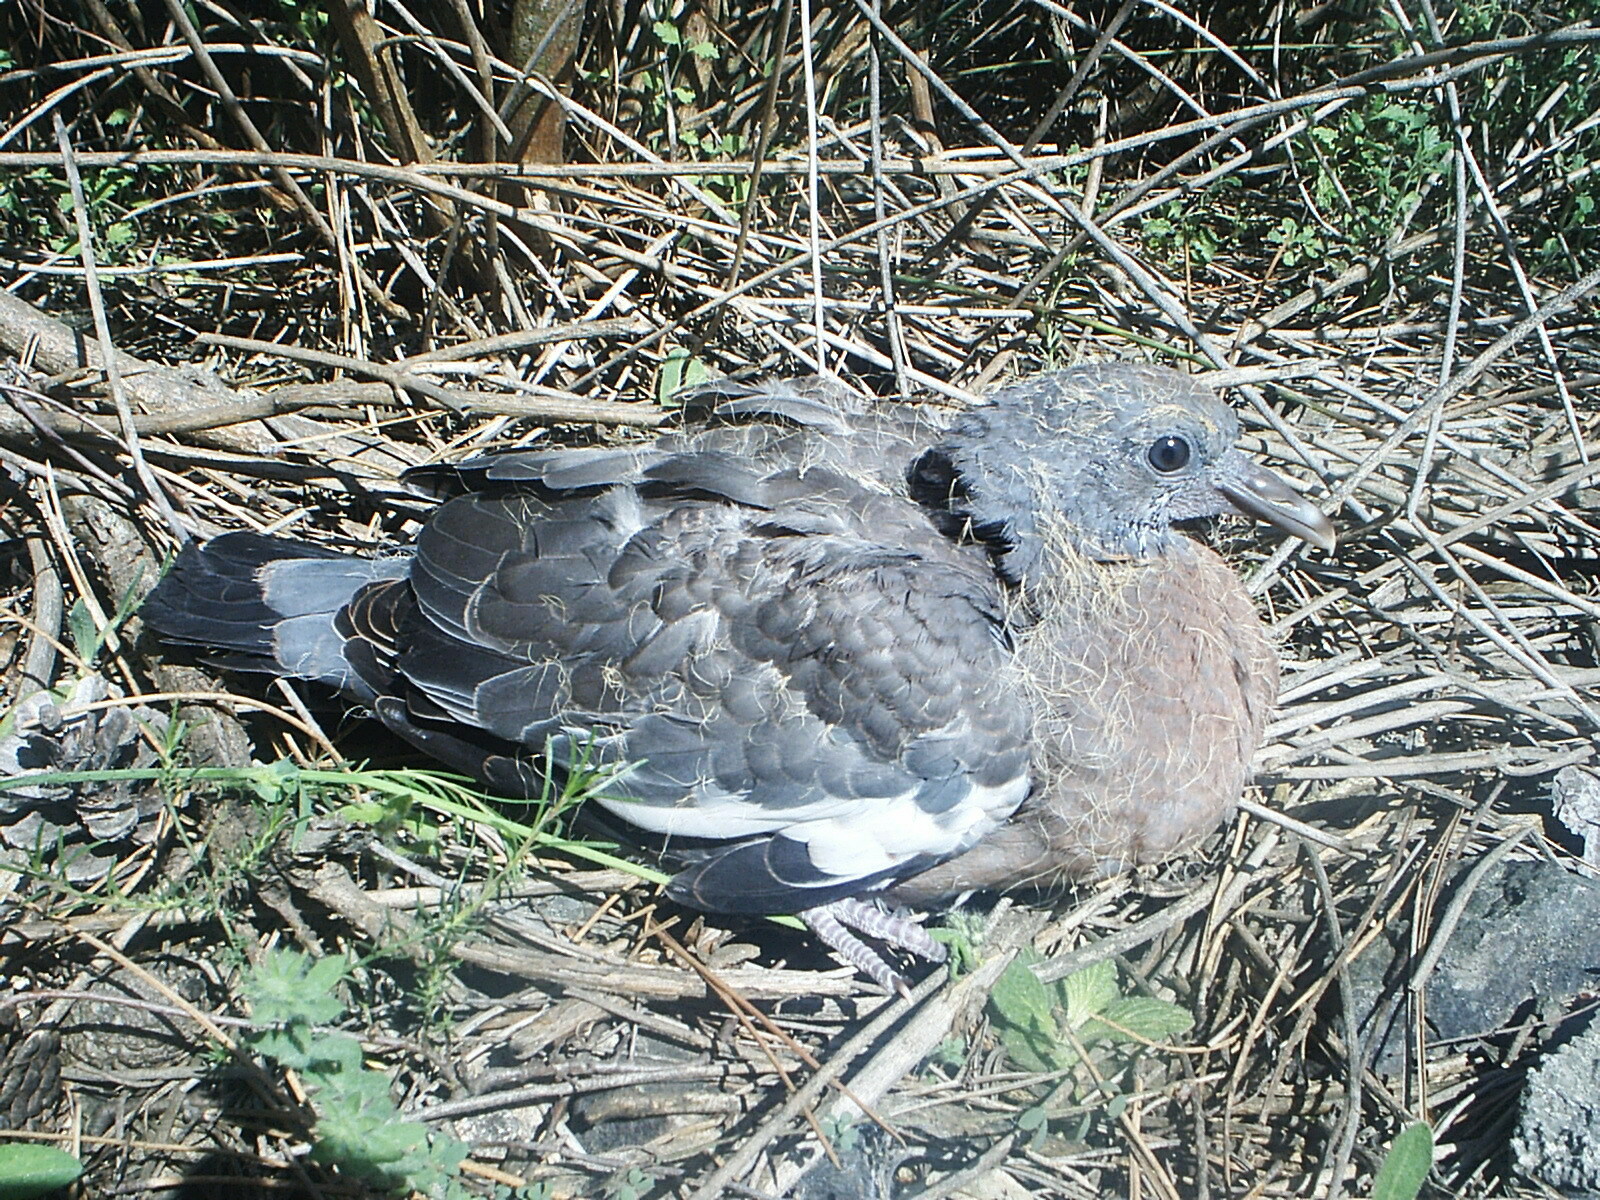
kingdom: Animalia
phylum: Chordata
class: Aves
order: Columbiformes
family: Columbidae
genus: Columba
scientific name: Columba palumbus
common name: Common wood pigeon
